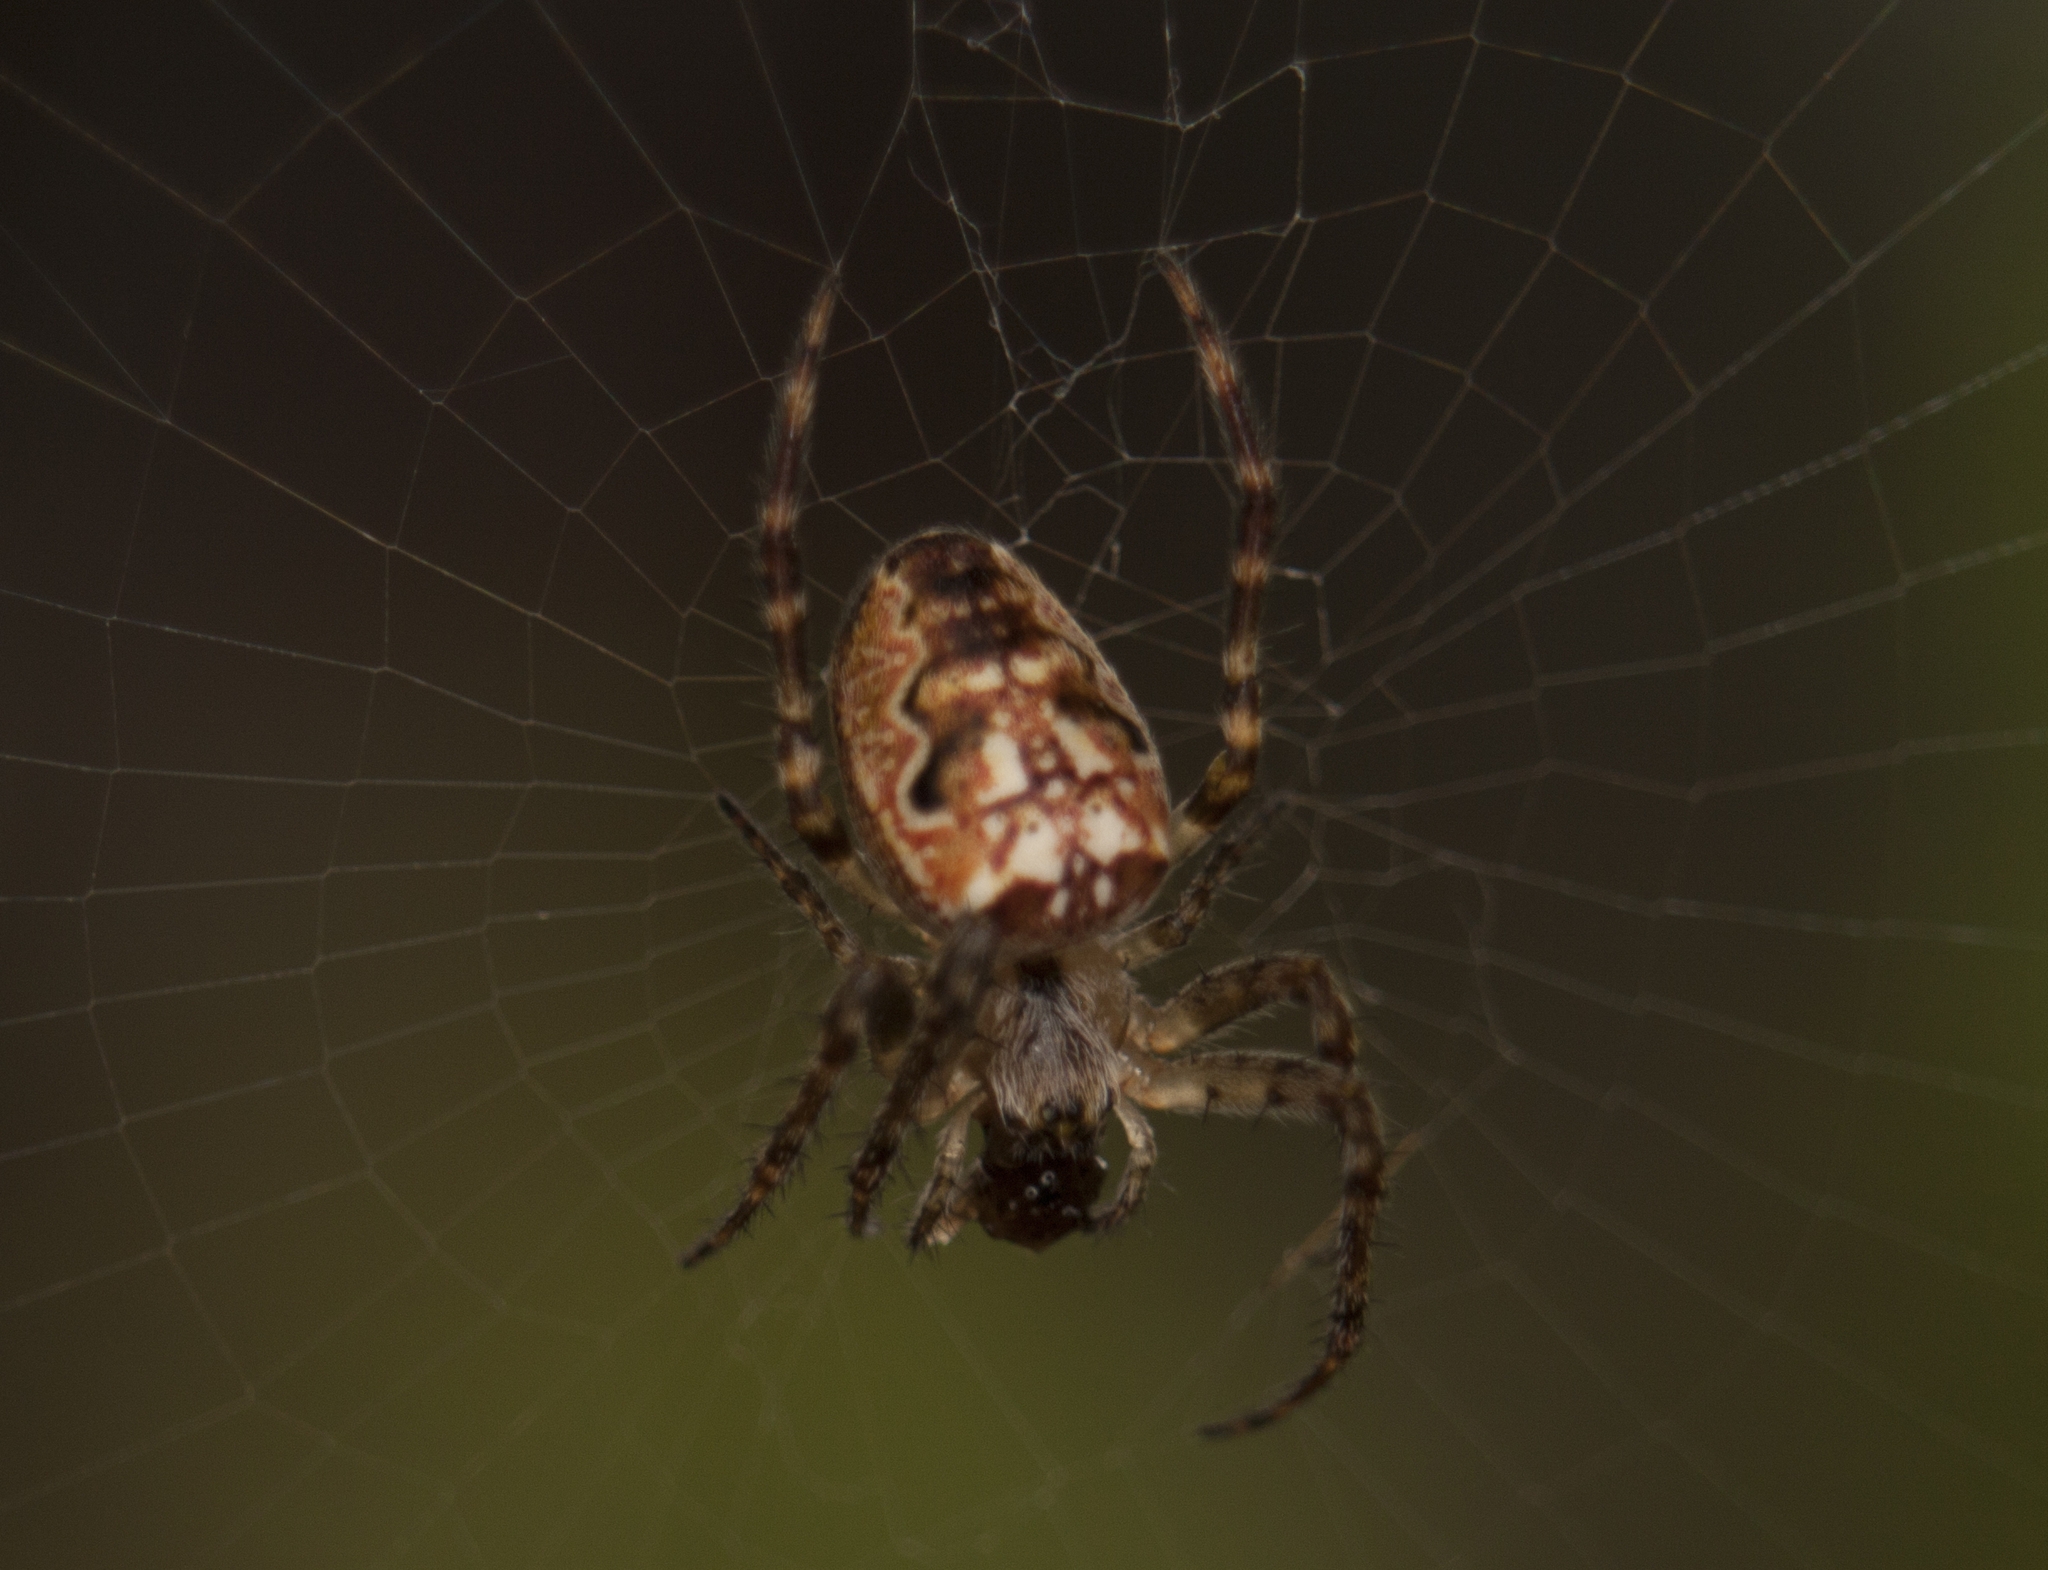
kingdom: Animalia
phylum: Arthropoda
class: Arachnida
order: Araneae
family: Araneidae
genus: Plebs
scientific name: Plebs eburnus
